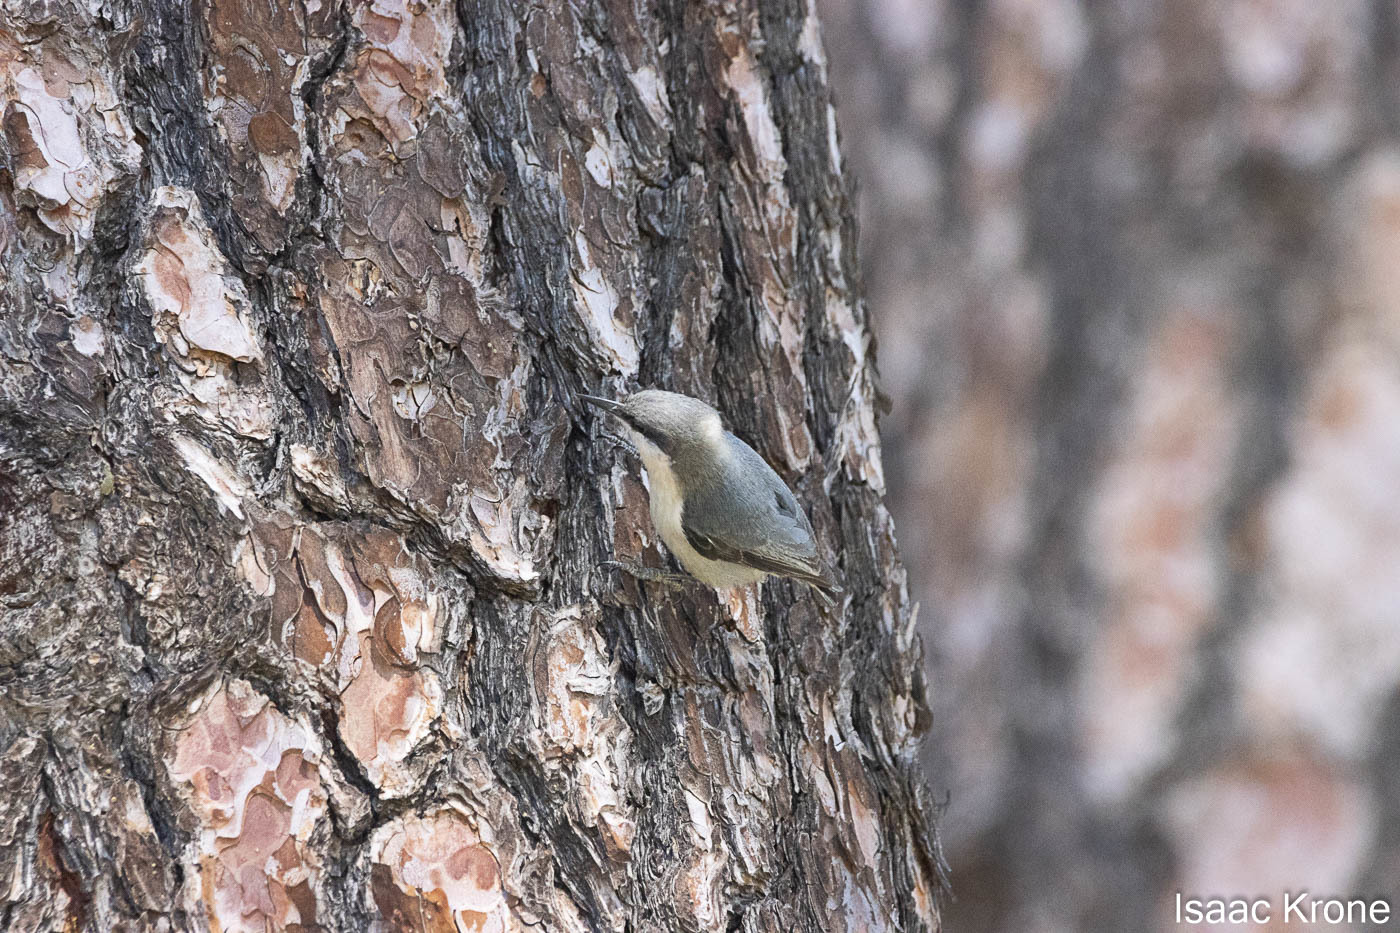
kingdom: Animalia
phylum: Chordata
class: Aves
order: Passeriformes
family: Sittidae
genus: Sitta
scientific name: Sitta pygmaea
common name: Pygmy nuthatch
